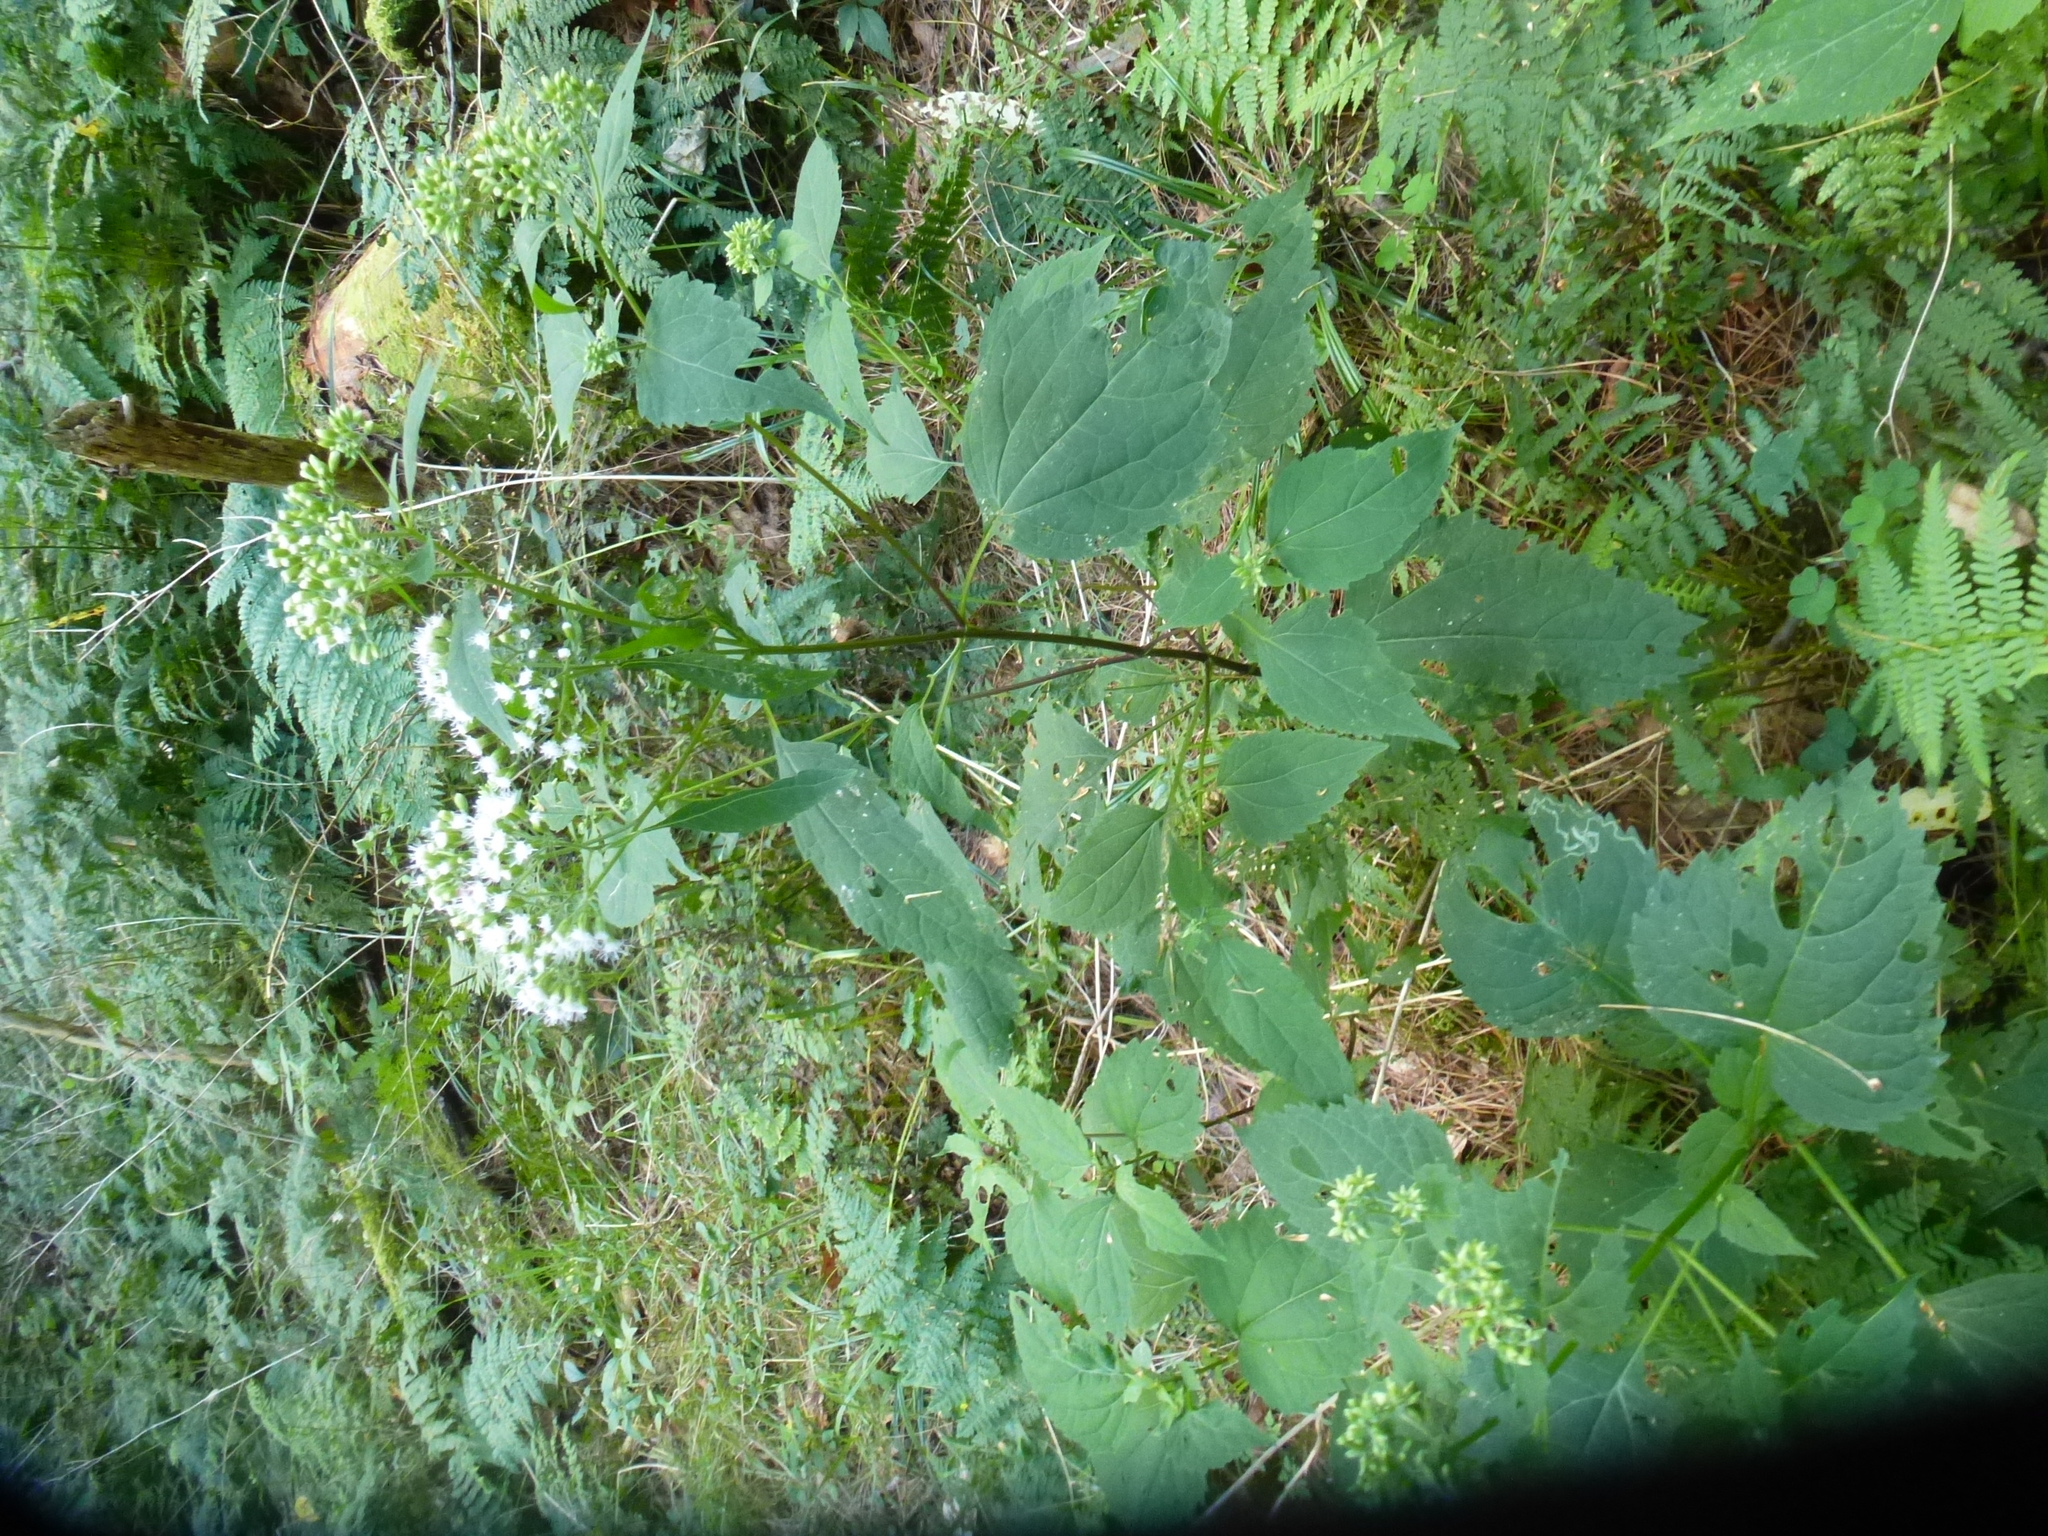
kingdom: Plantae
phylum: Tracheophyta
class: Magnoliopsida
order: Asterales
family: Asteraceae
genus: Ageratina
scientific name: Ageratina altissima
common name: White snakeroot
